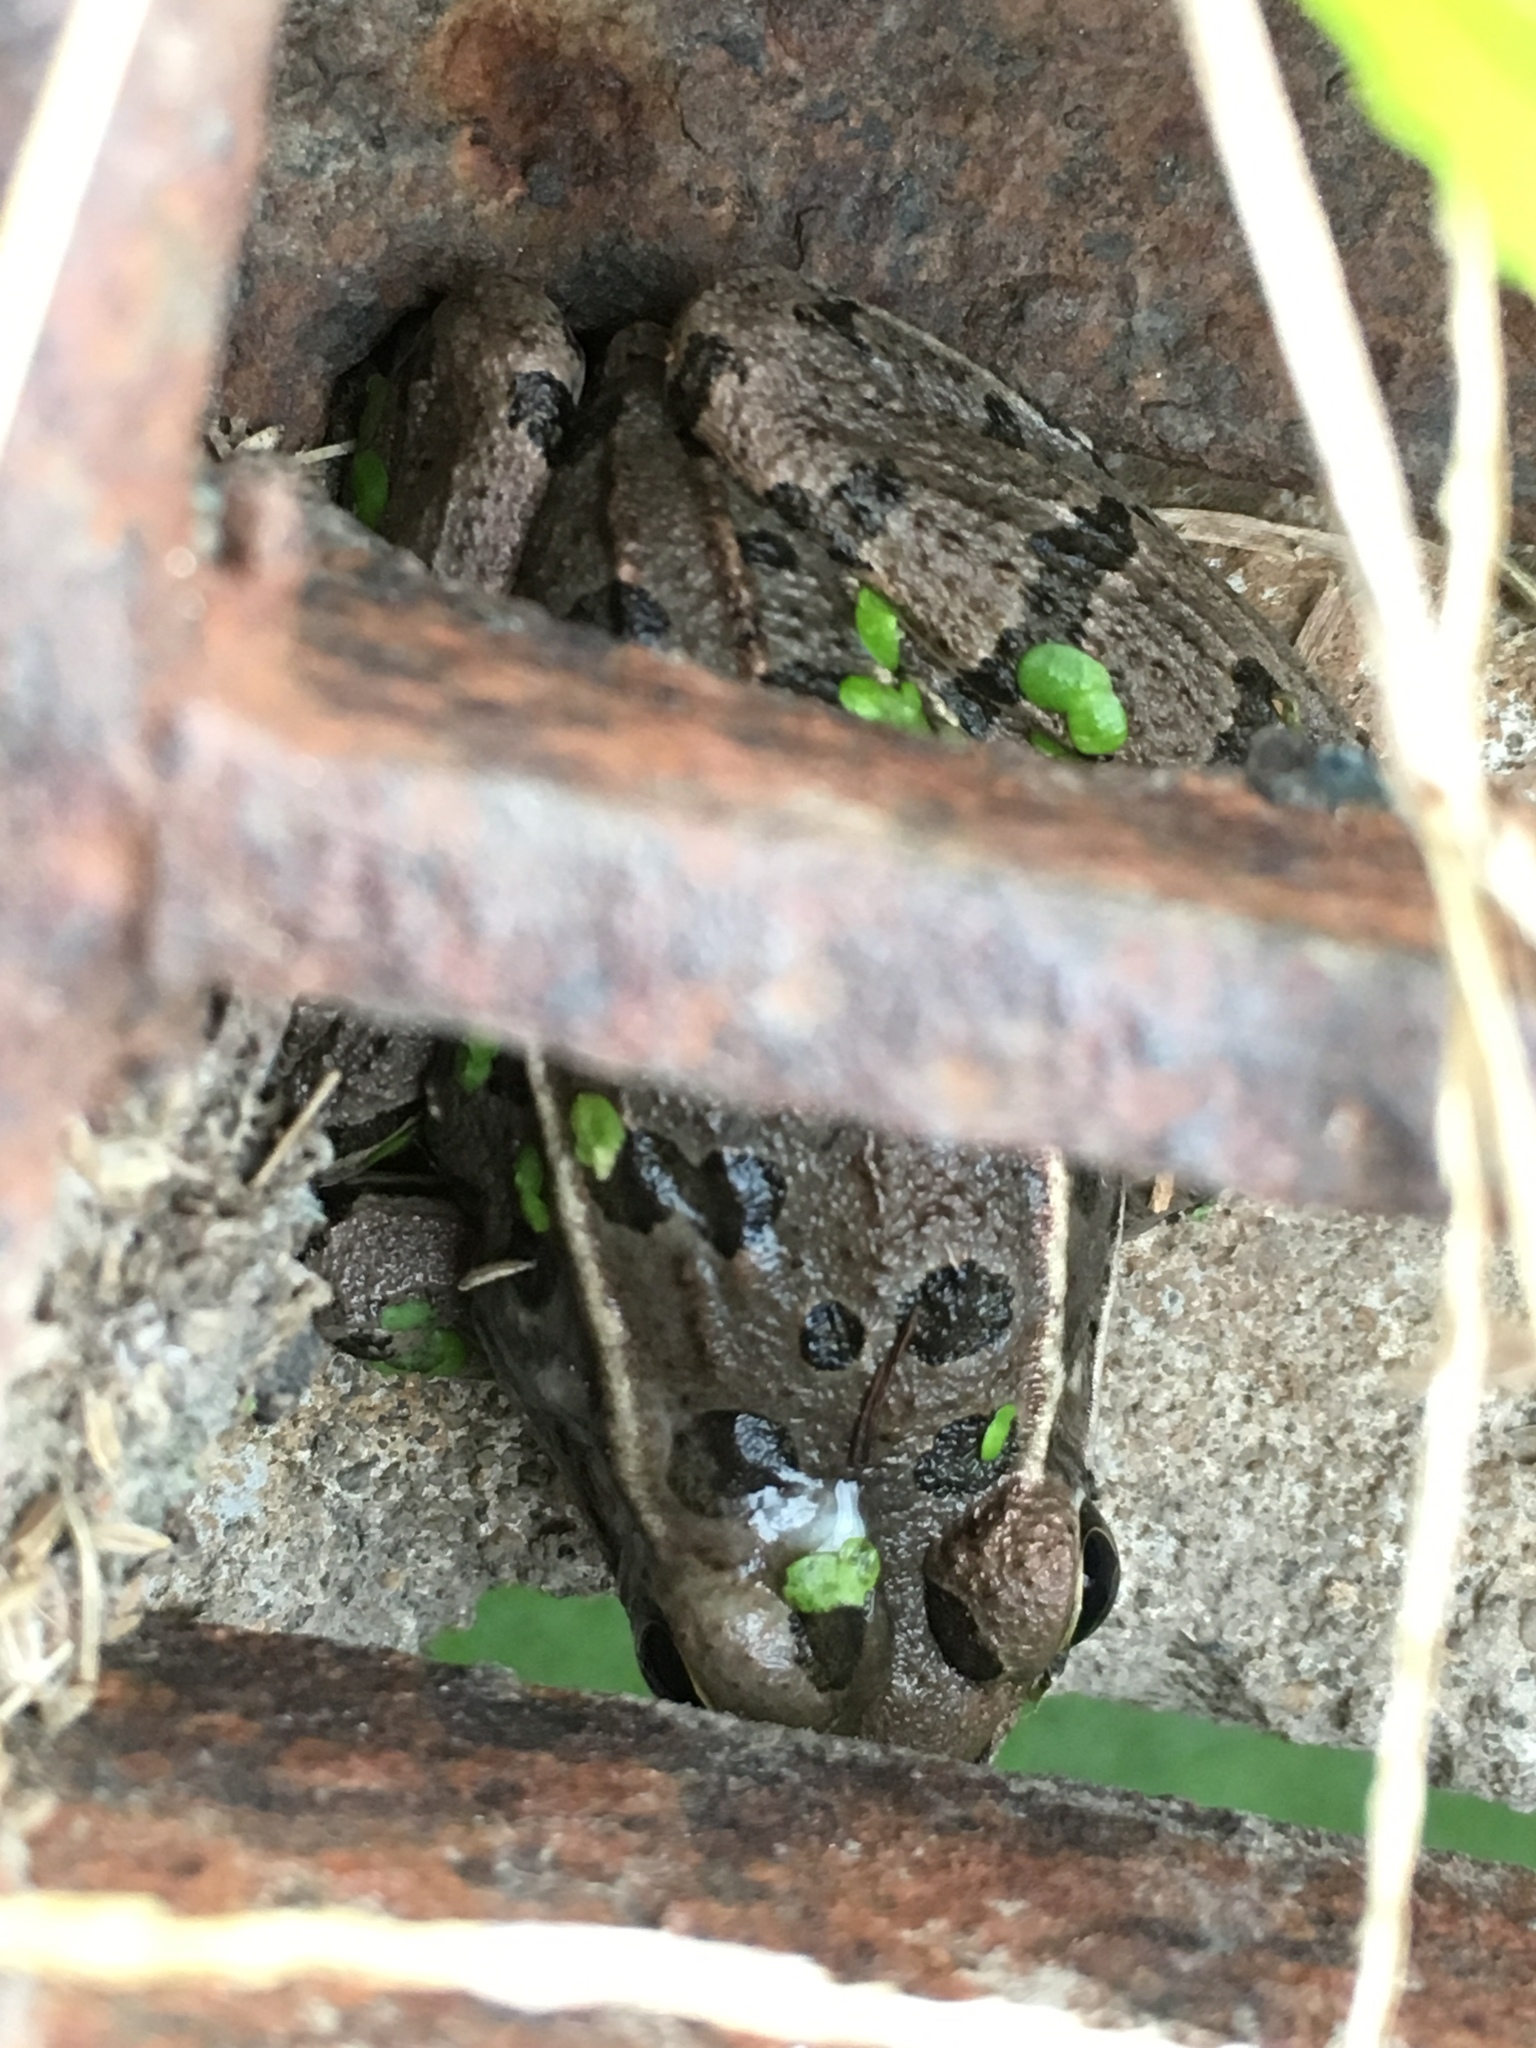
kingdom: Animalia
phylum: Chordata
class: Amphibia
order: Anura
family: Ranidae
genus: Lithobates
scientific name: Lithobates
